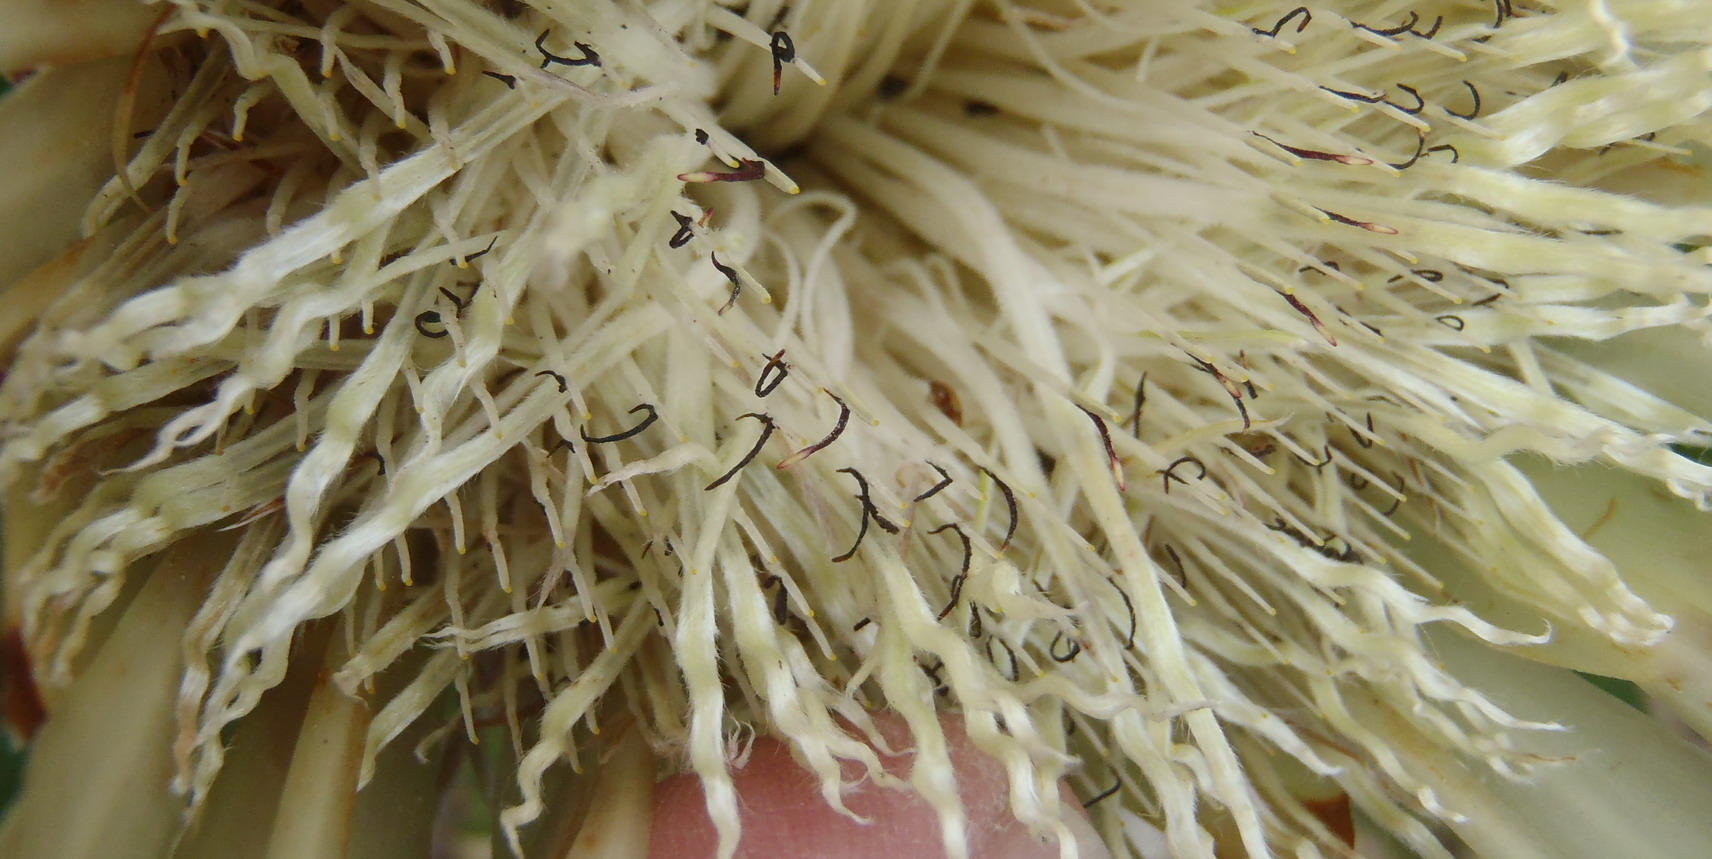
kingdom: Plantae
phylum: Tracheophyta
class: Magnoliopsida
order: Proteales
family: Proteaceae
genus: Protea
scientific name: Protea obtusifolia
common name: Bredasdorp sugarbush
